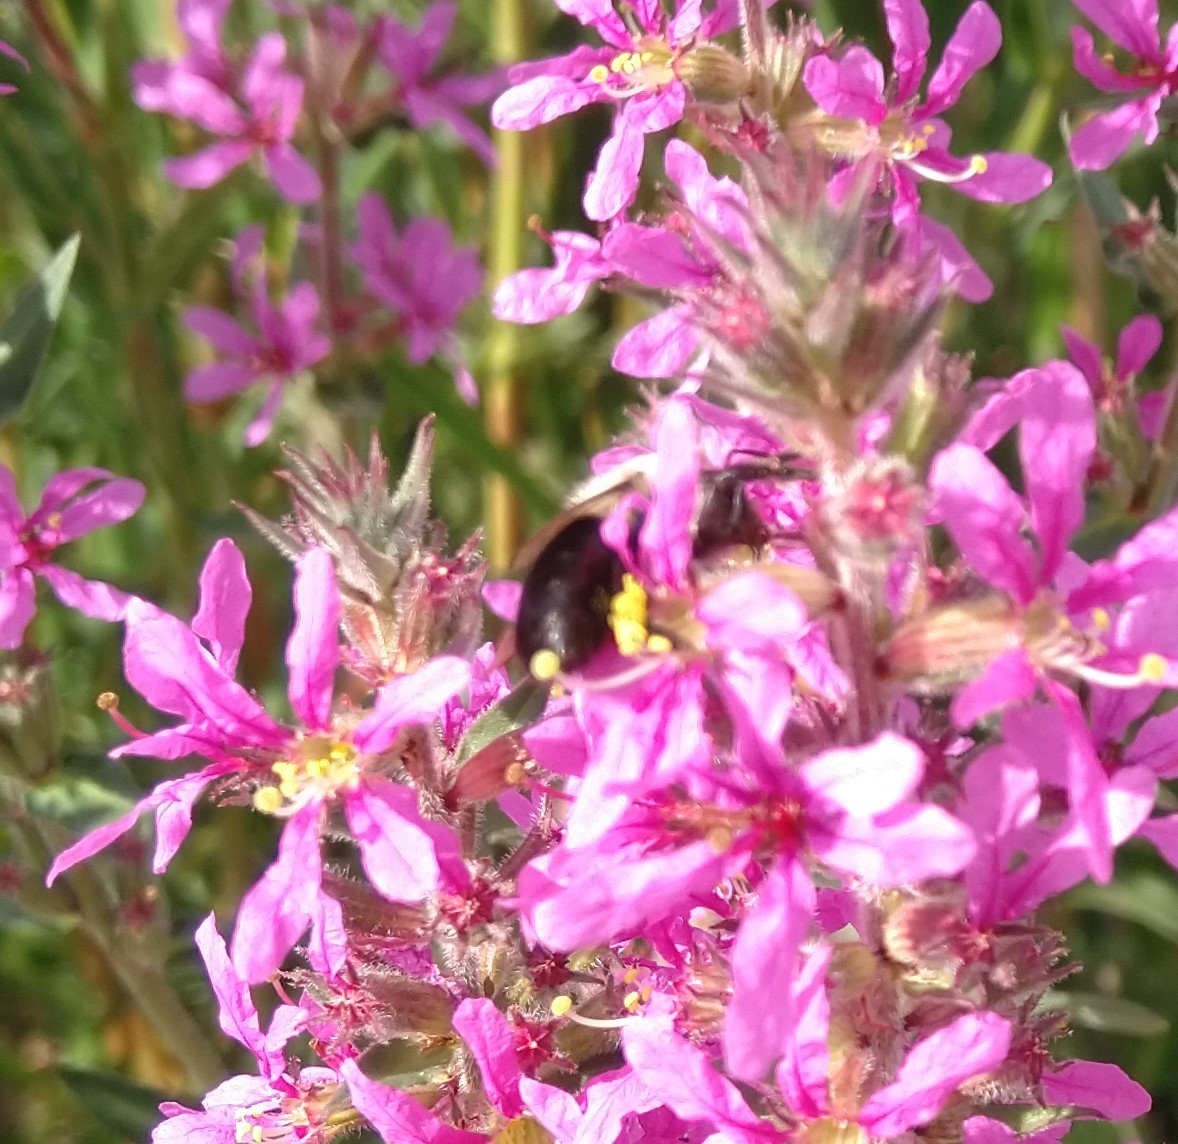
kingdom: Animalia
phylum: Arthropoda
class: Insecta
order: Hymenoptera
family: Apidae
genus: Bombus
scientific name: Bombus impatiens
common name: Common eastern bumble bee
